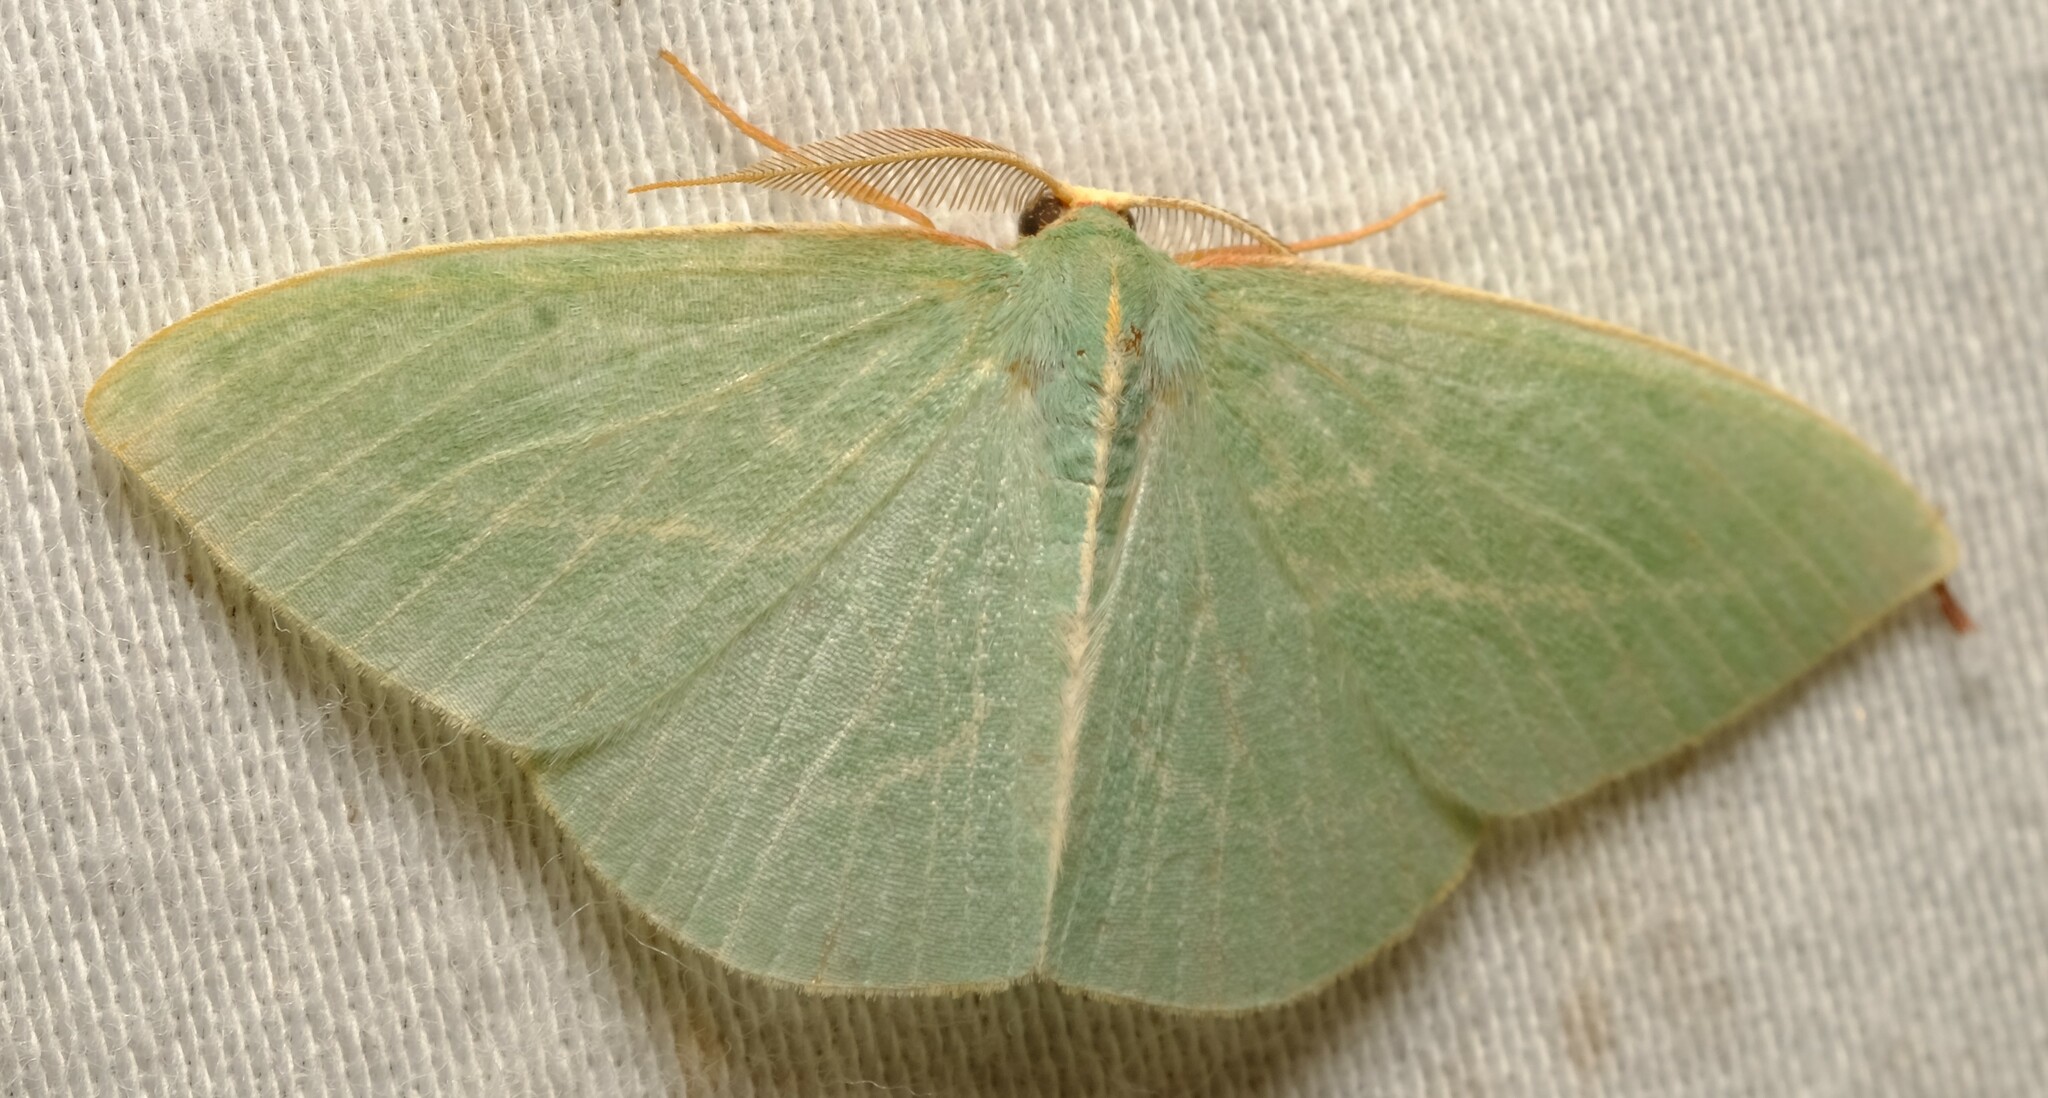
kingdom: Animalia
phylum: Arthropoda
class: Insecta
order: Lepidoptera
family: Geometridae
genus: Chlorocoma
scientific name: Chlorocoma carenaria
